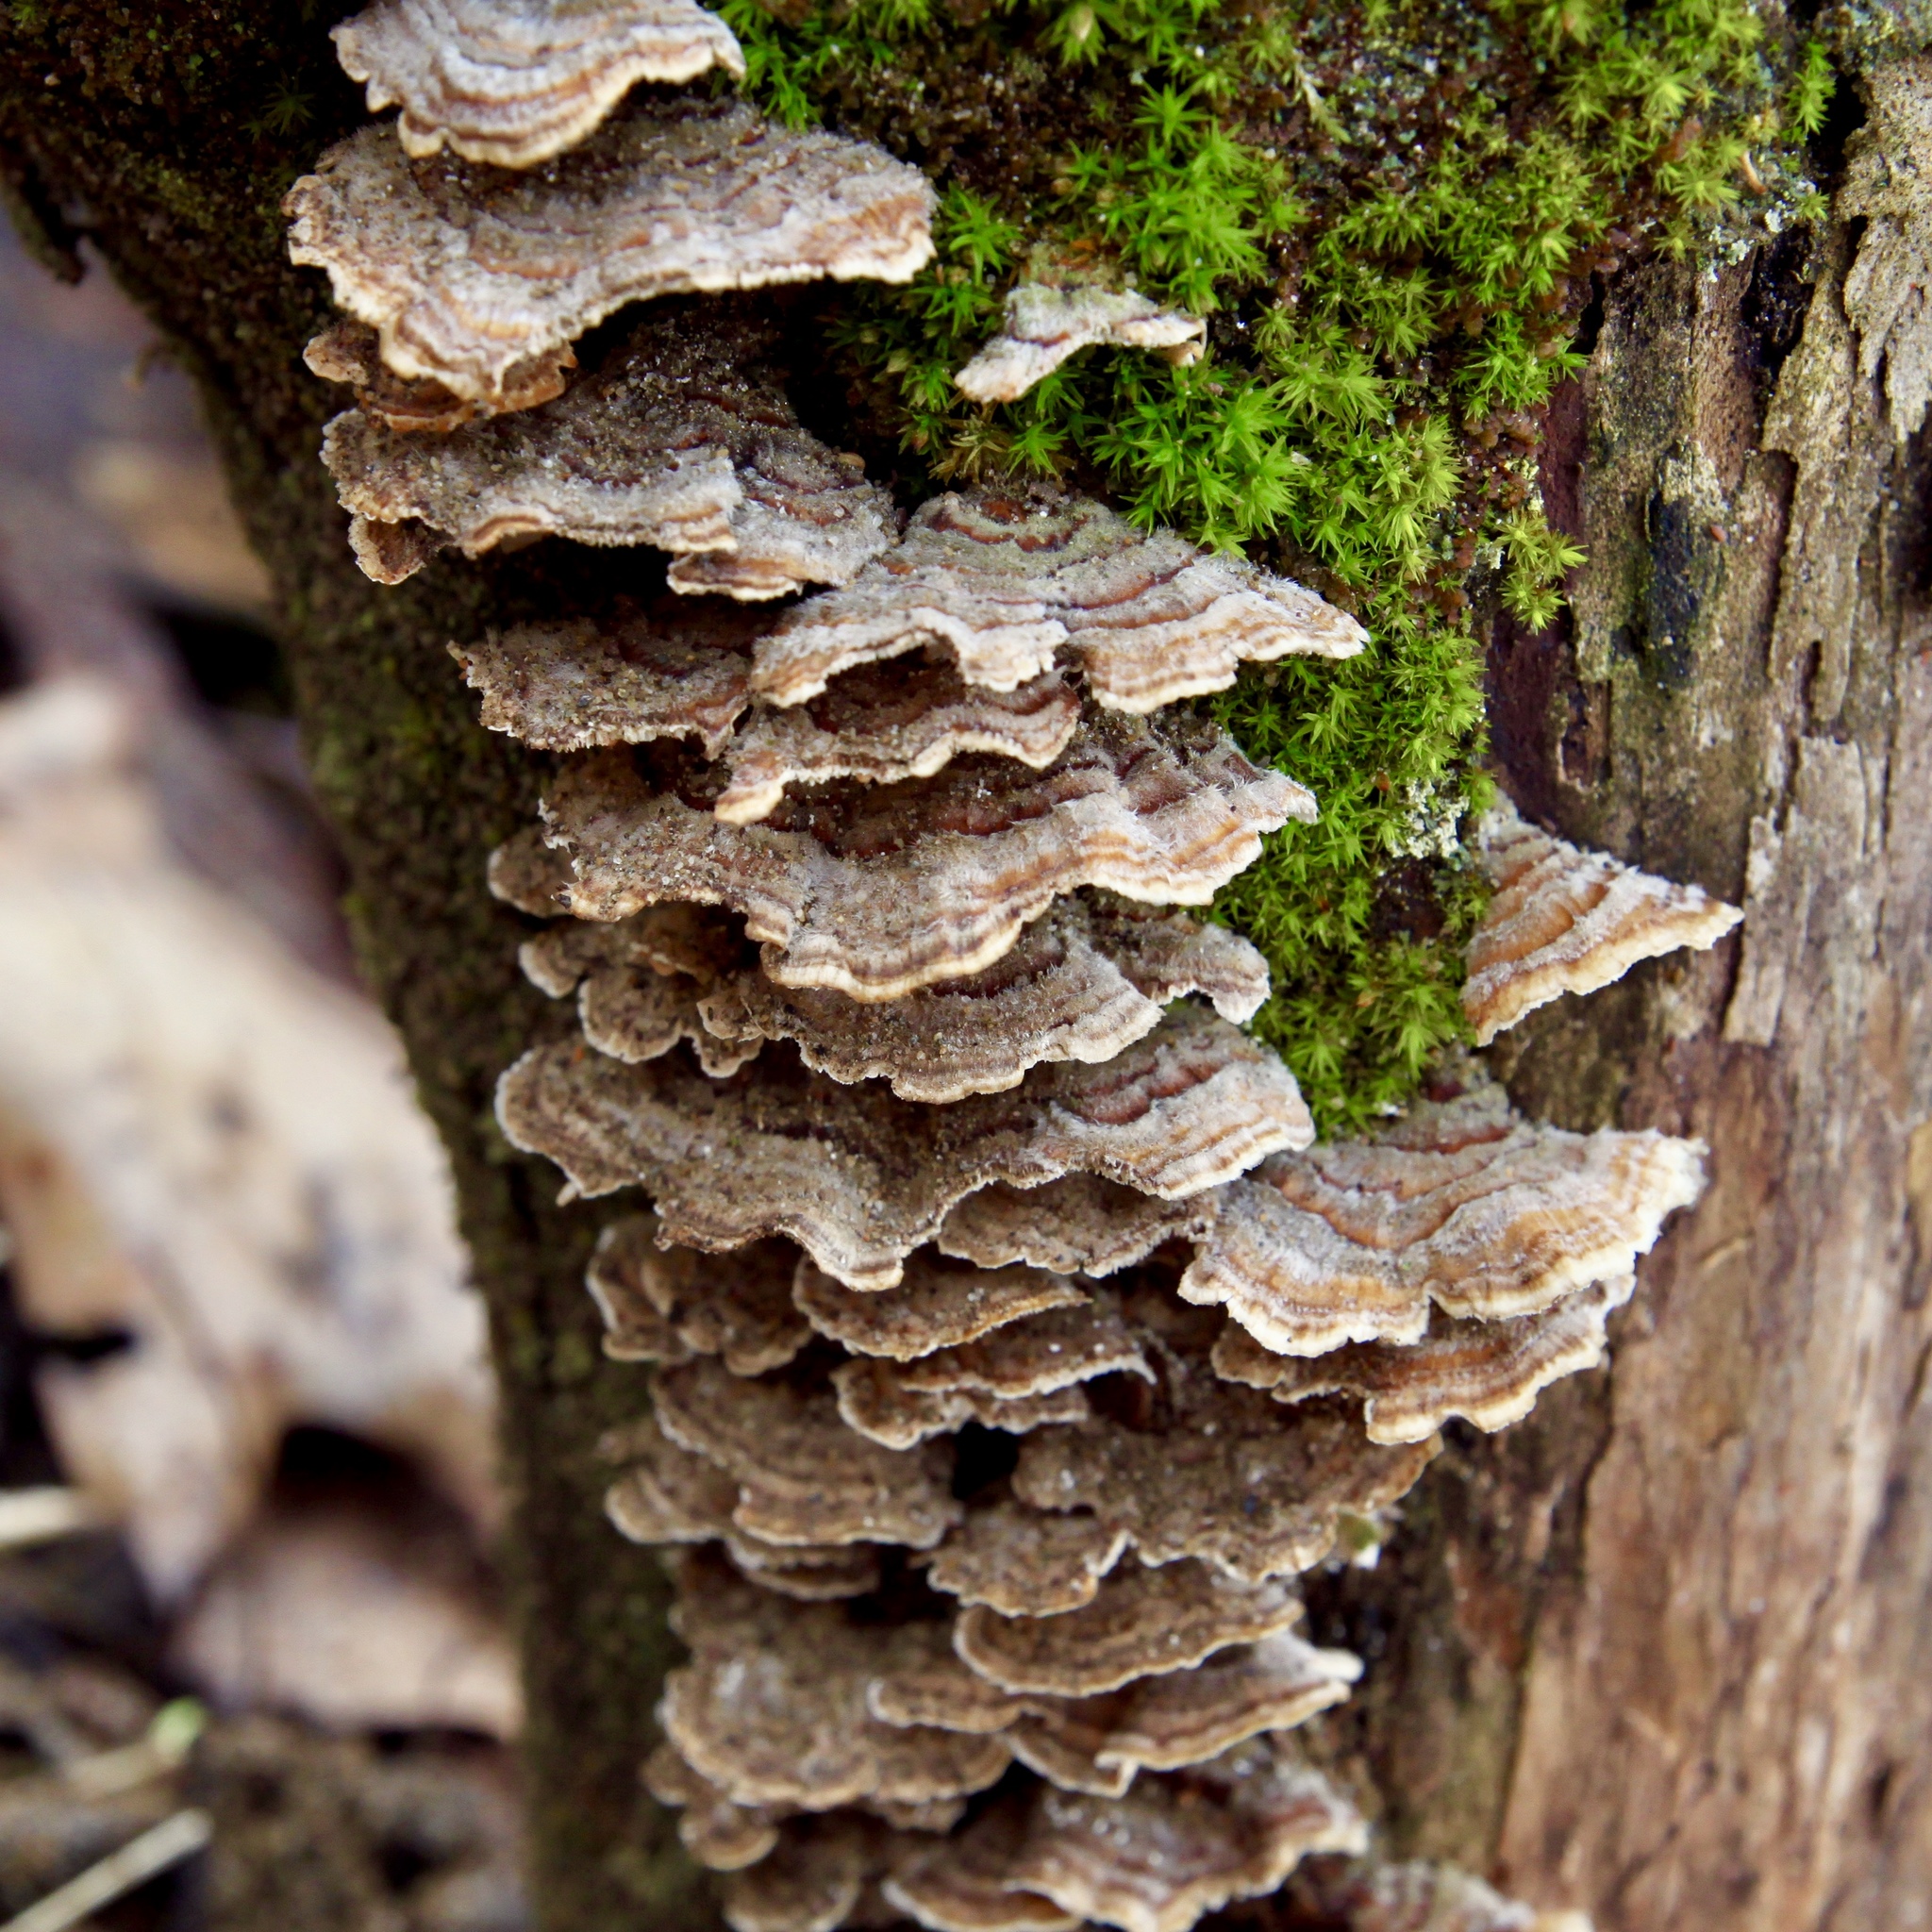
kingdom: Fungi
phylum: Basidiomycota
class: Agaricomycetes
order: Polyporales
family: Polyporaceae
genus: Trametes
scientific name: Trametes versicolor
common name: Turkeytail
